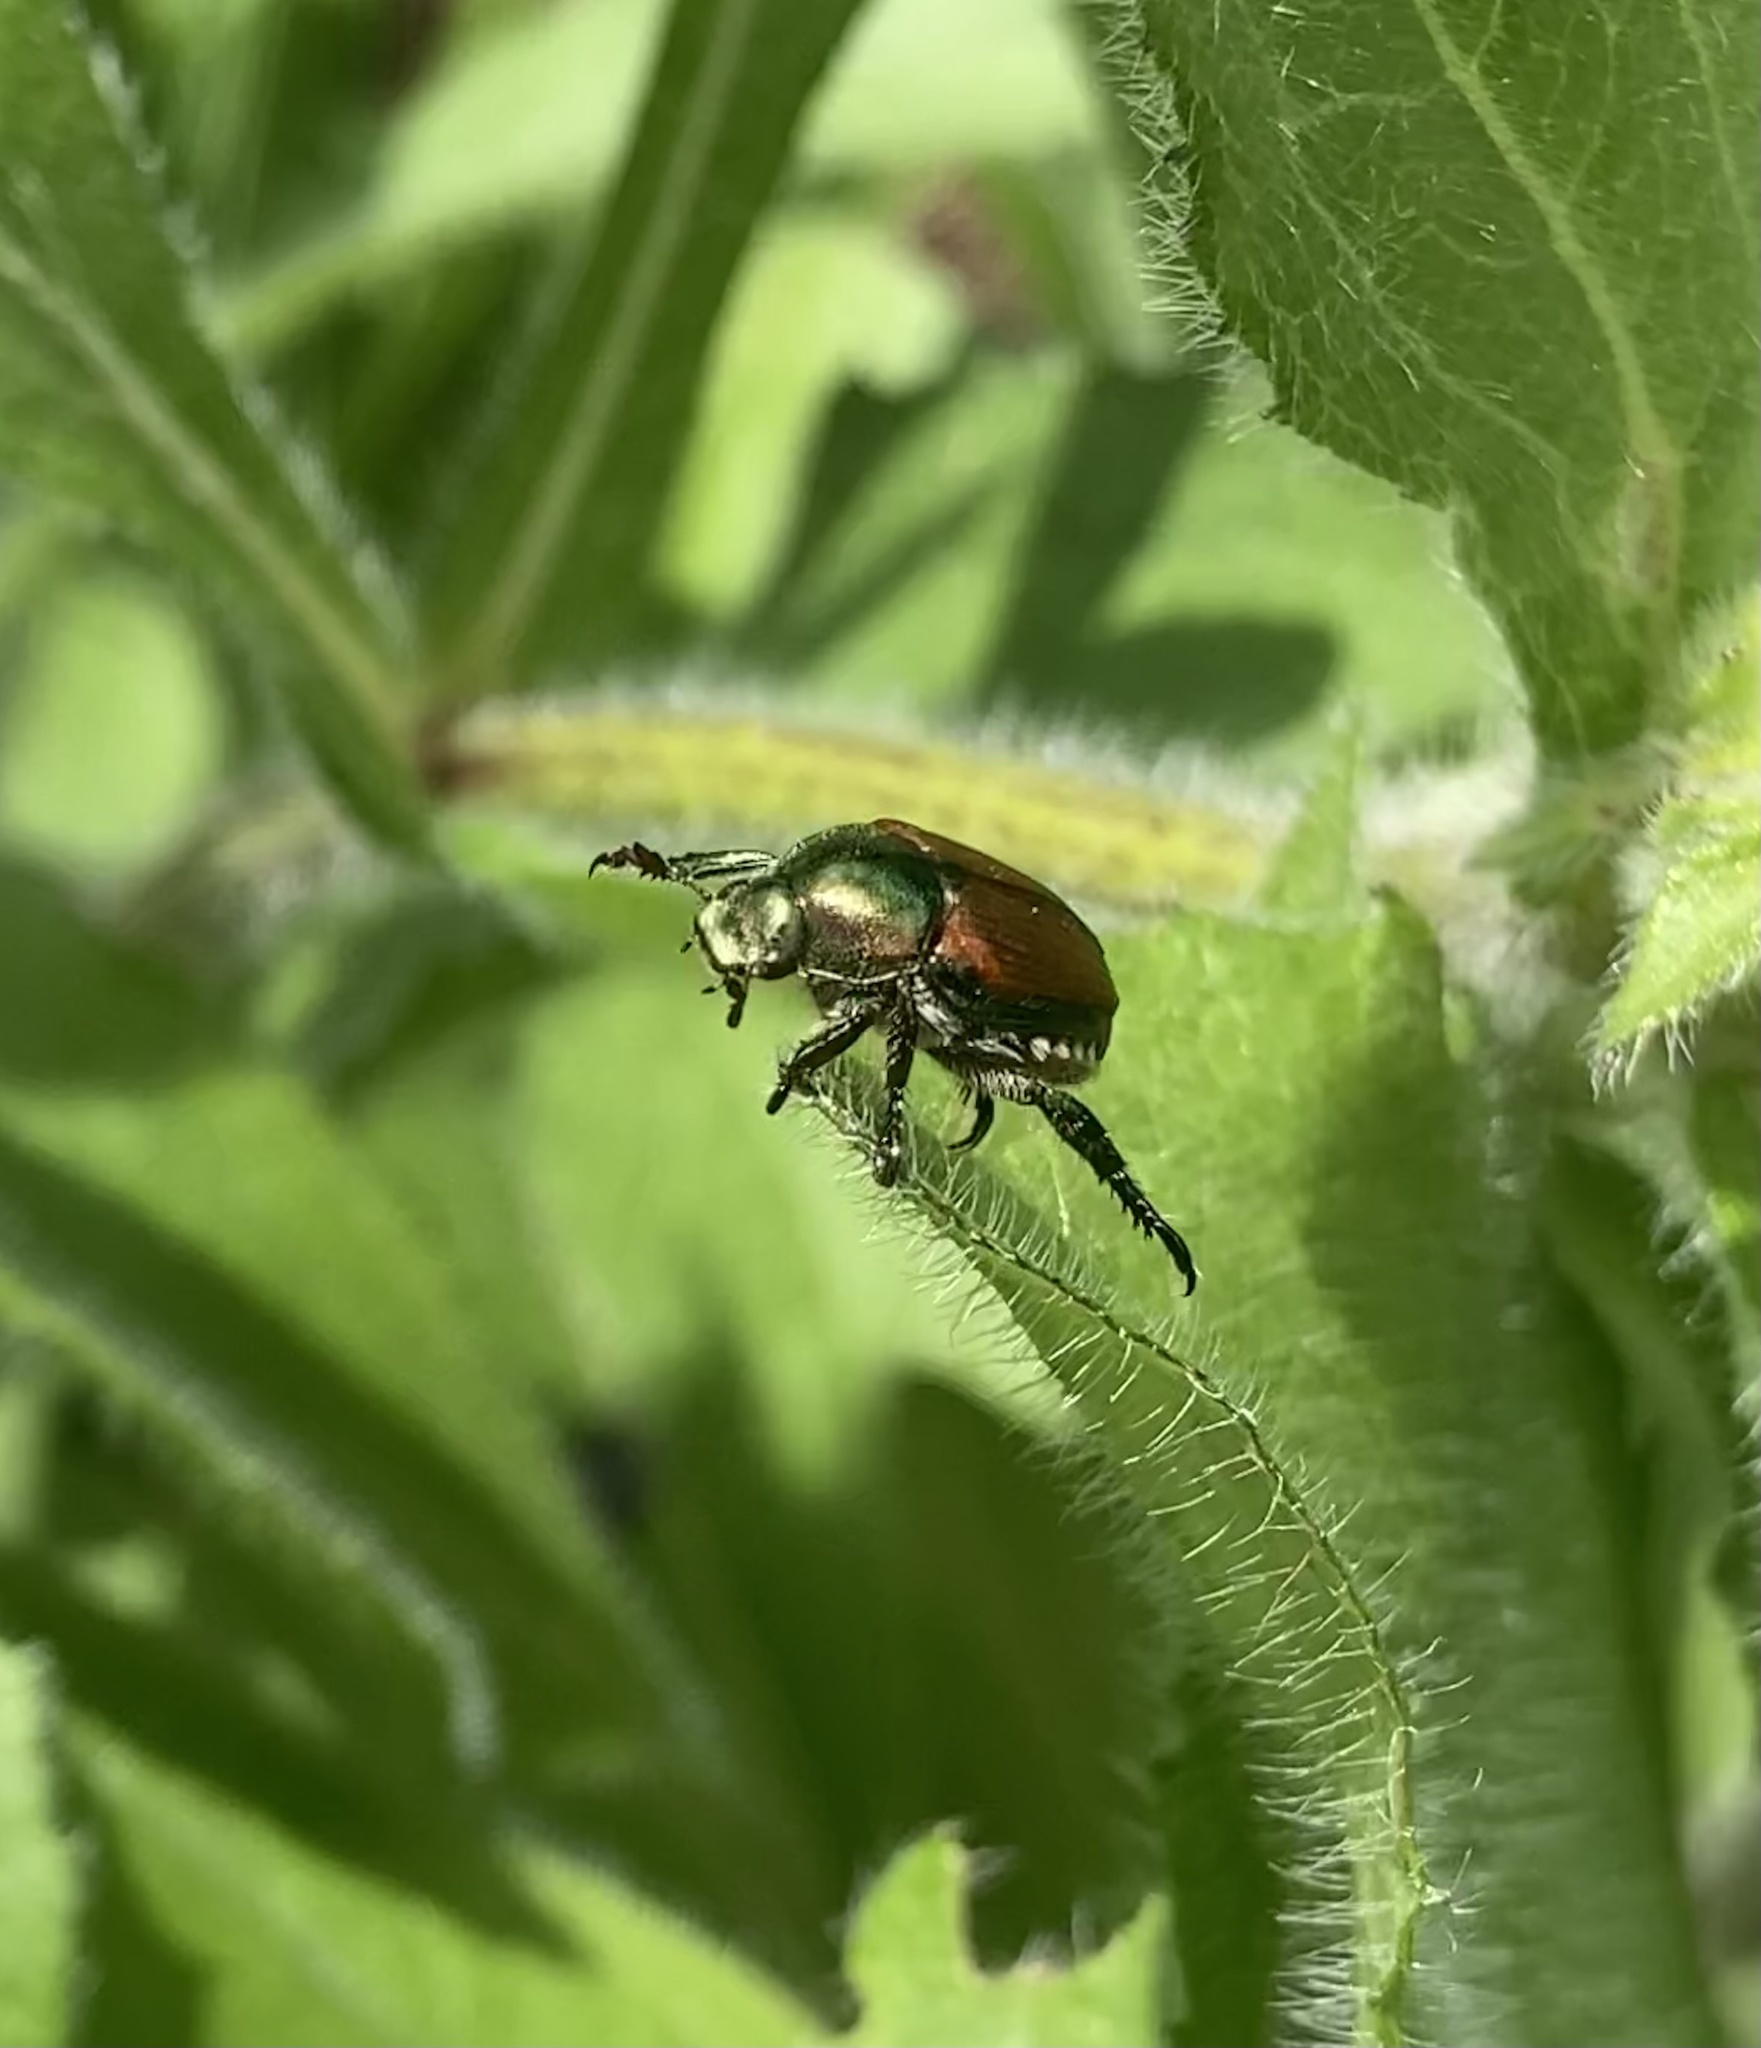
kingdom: Animalia
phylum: Arthropoda
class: Insecta
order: Coleoptera
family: Scarabaeidae
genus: Popillia
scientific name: Popillia japonica
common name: Japanese beetle
